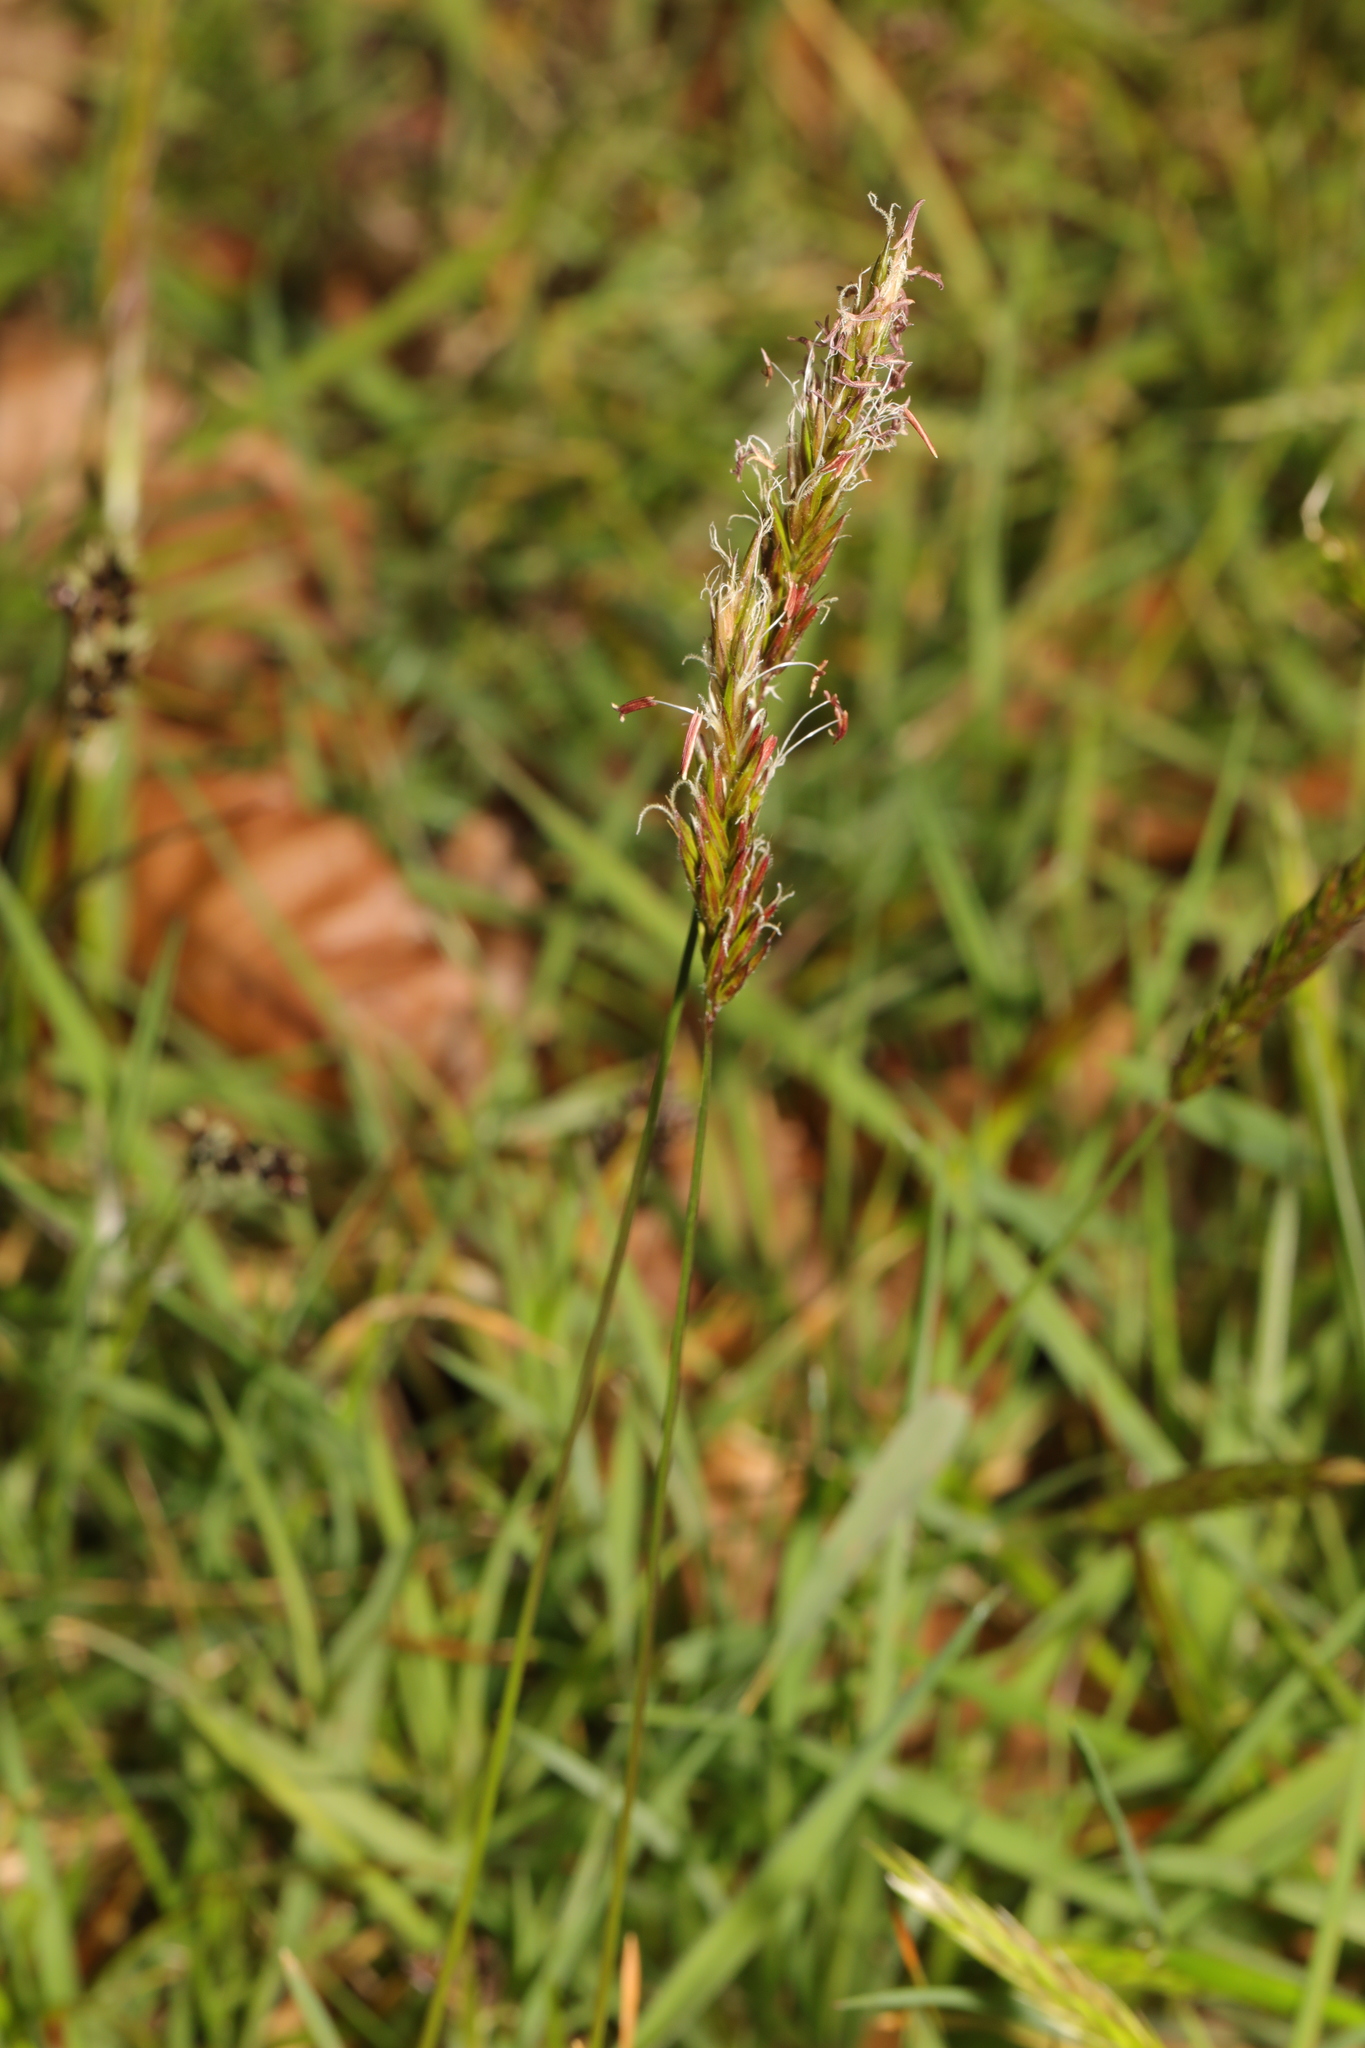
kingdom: Plantae
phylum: Tracheophyta
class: Liliopsida
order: Poales
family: Poaceae
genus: Anthoxanthum
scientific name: Anthoxanthum odoratum
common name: Sweet vernalgrass
